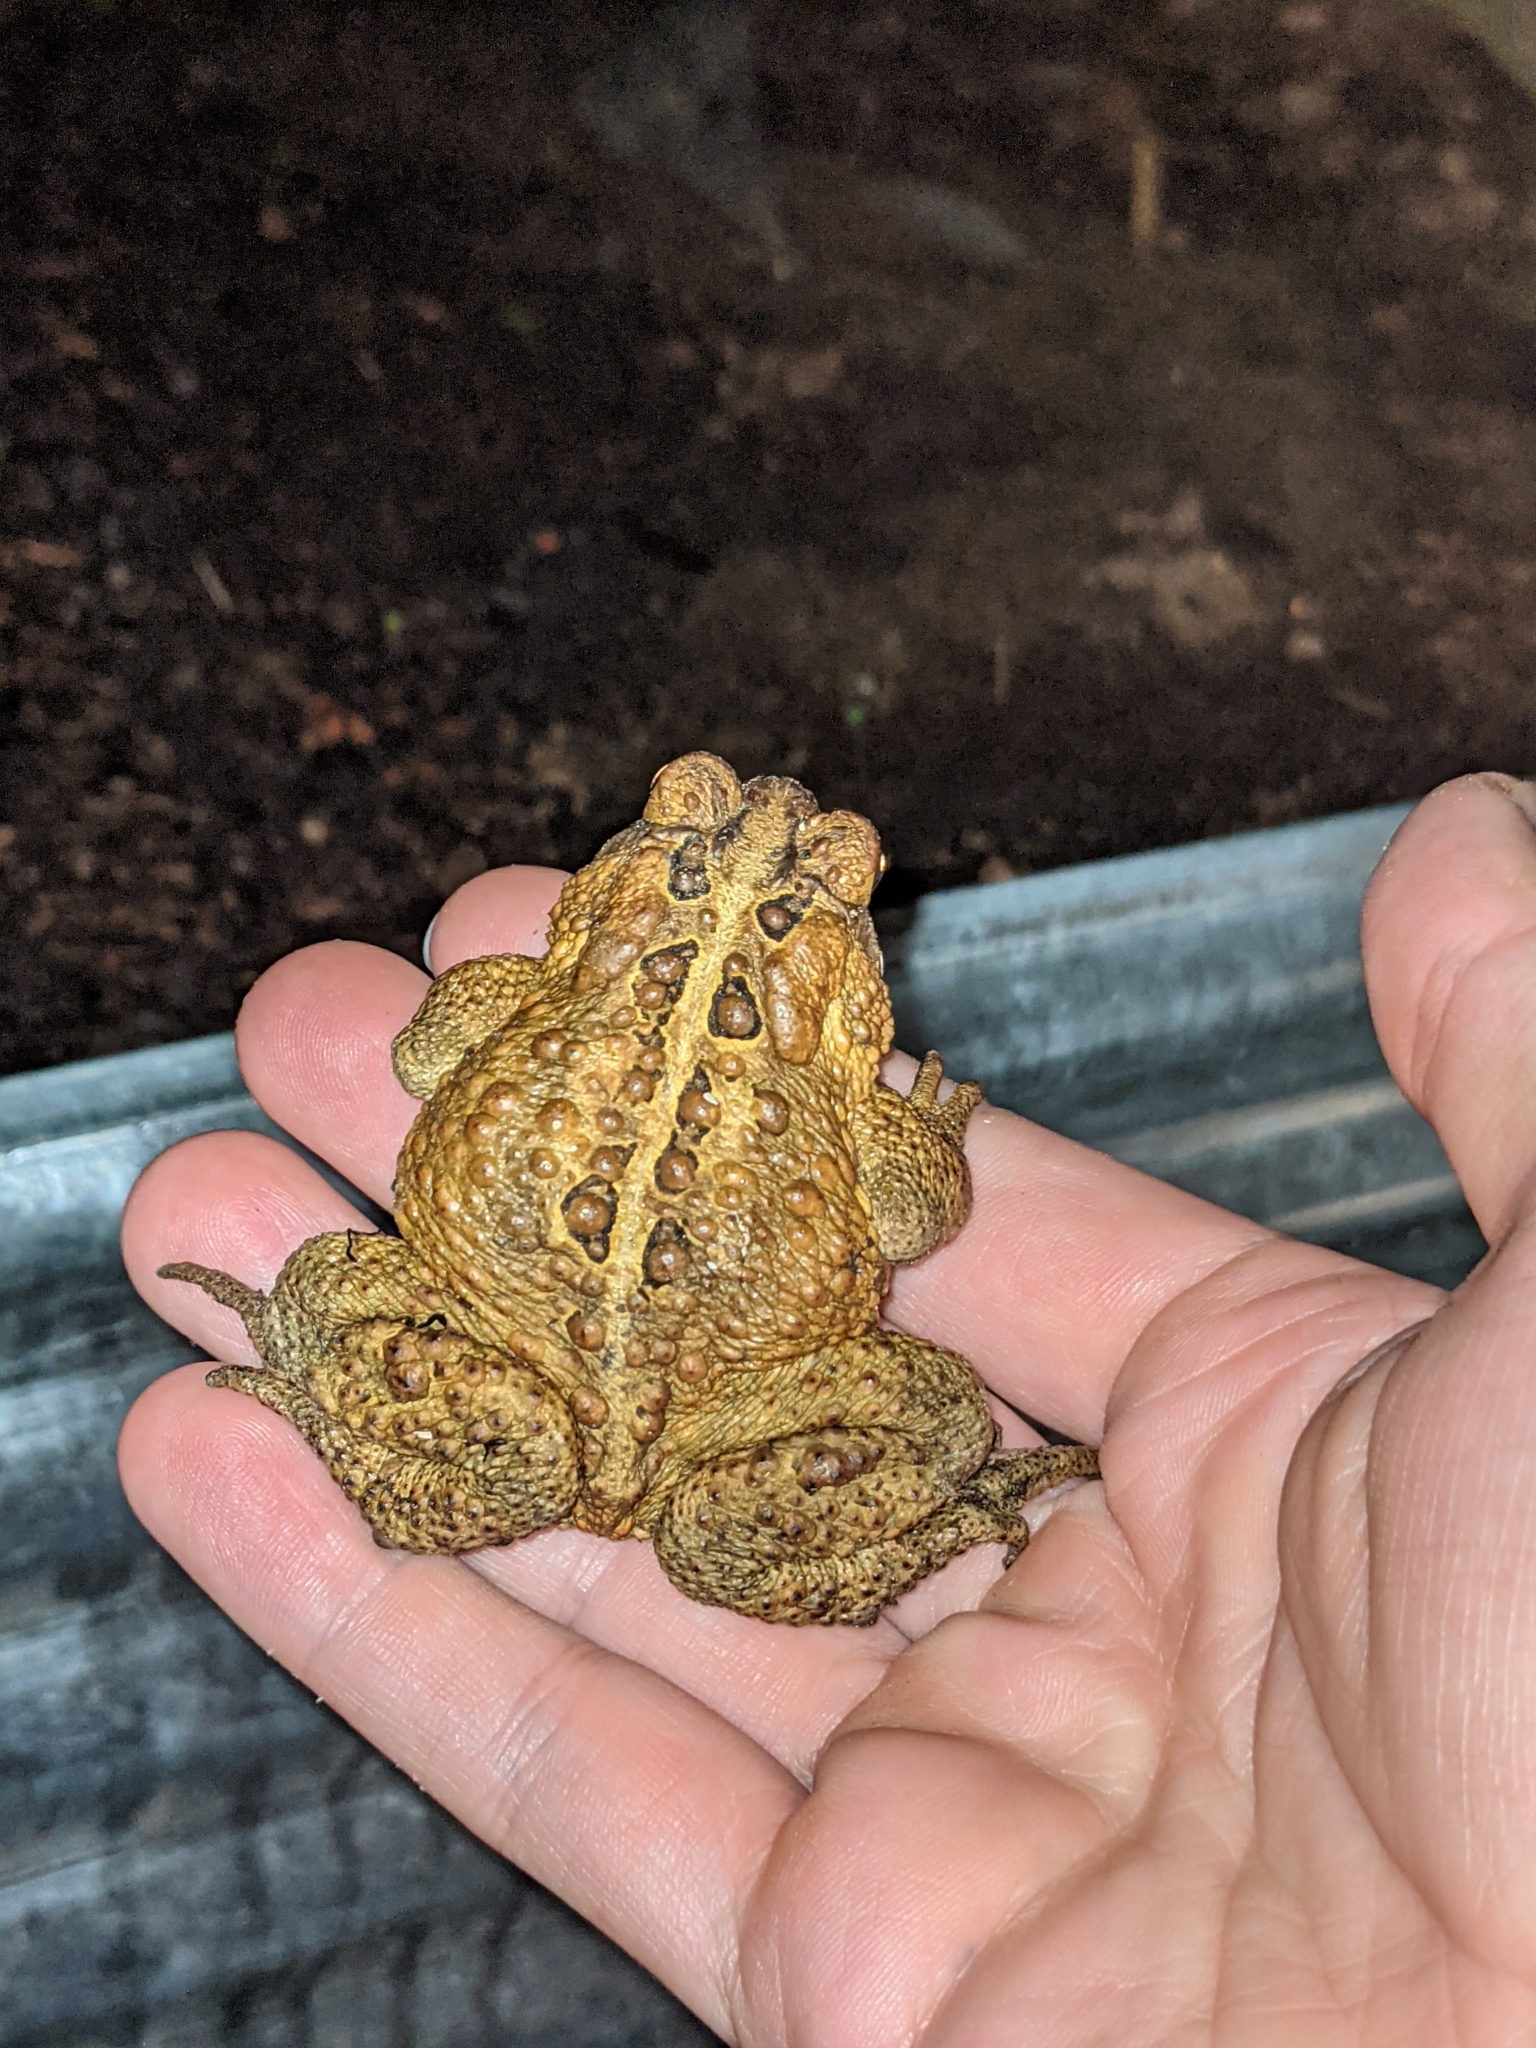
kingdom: Animalia
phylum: Chordata
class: Amphibia
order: Anura
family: Bufonidae
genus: Anaxyrus
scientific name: Anaxyrus americanus
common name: American toad
